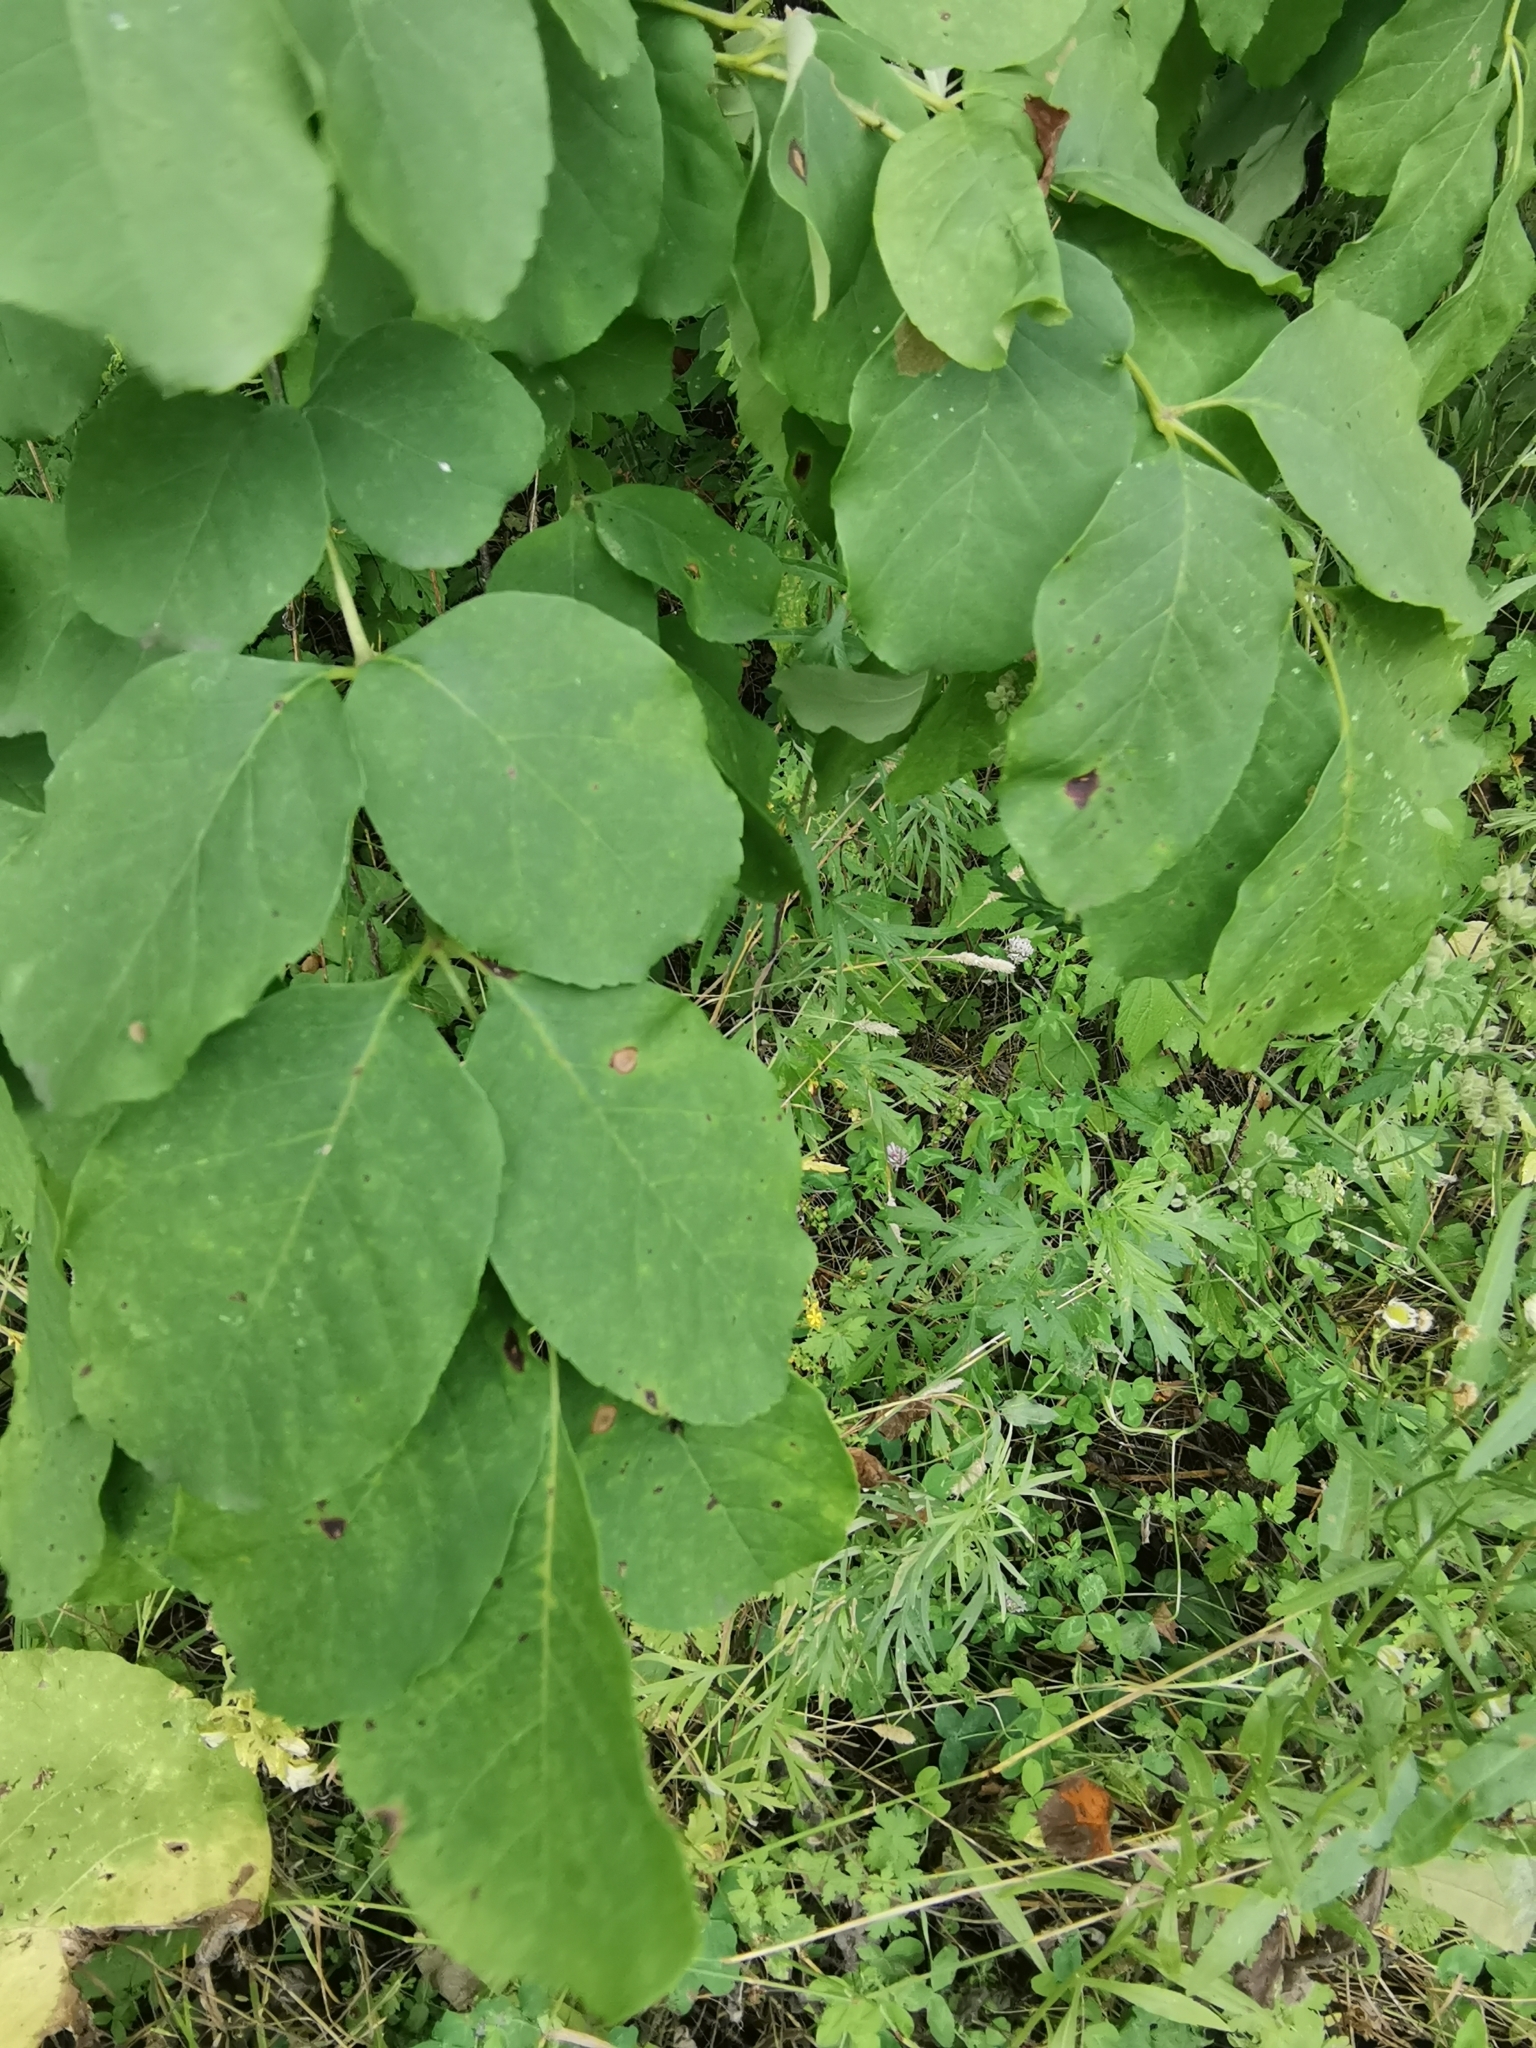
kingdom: Plantae
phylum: Tracheophyta
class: Magnoliopsida
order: Lamiales
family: Oleaceae
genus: Fraxinus
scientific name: Fraxinus chinensis
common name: Chinese ash
